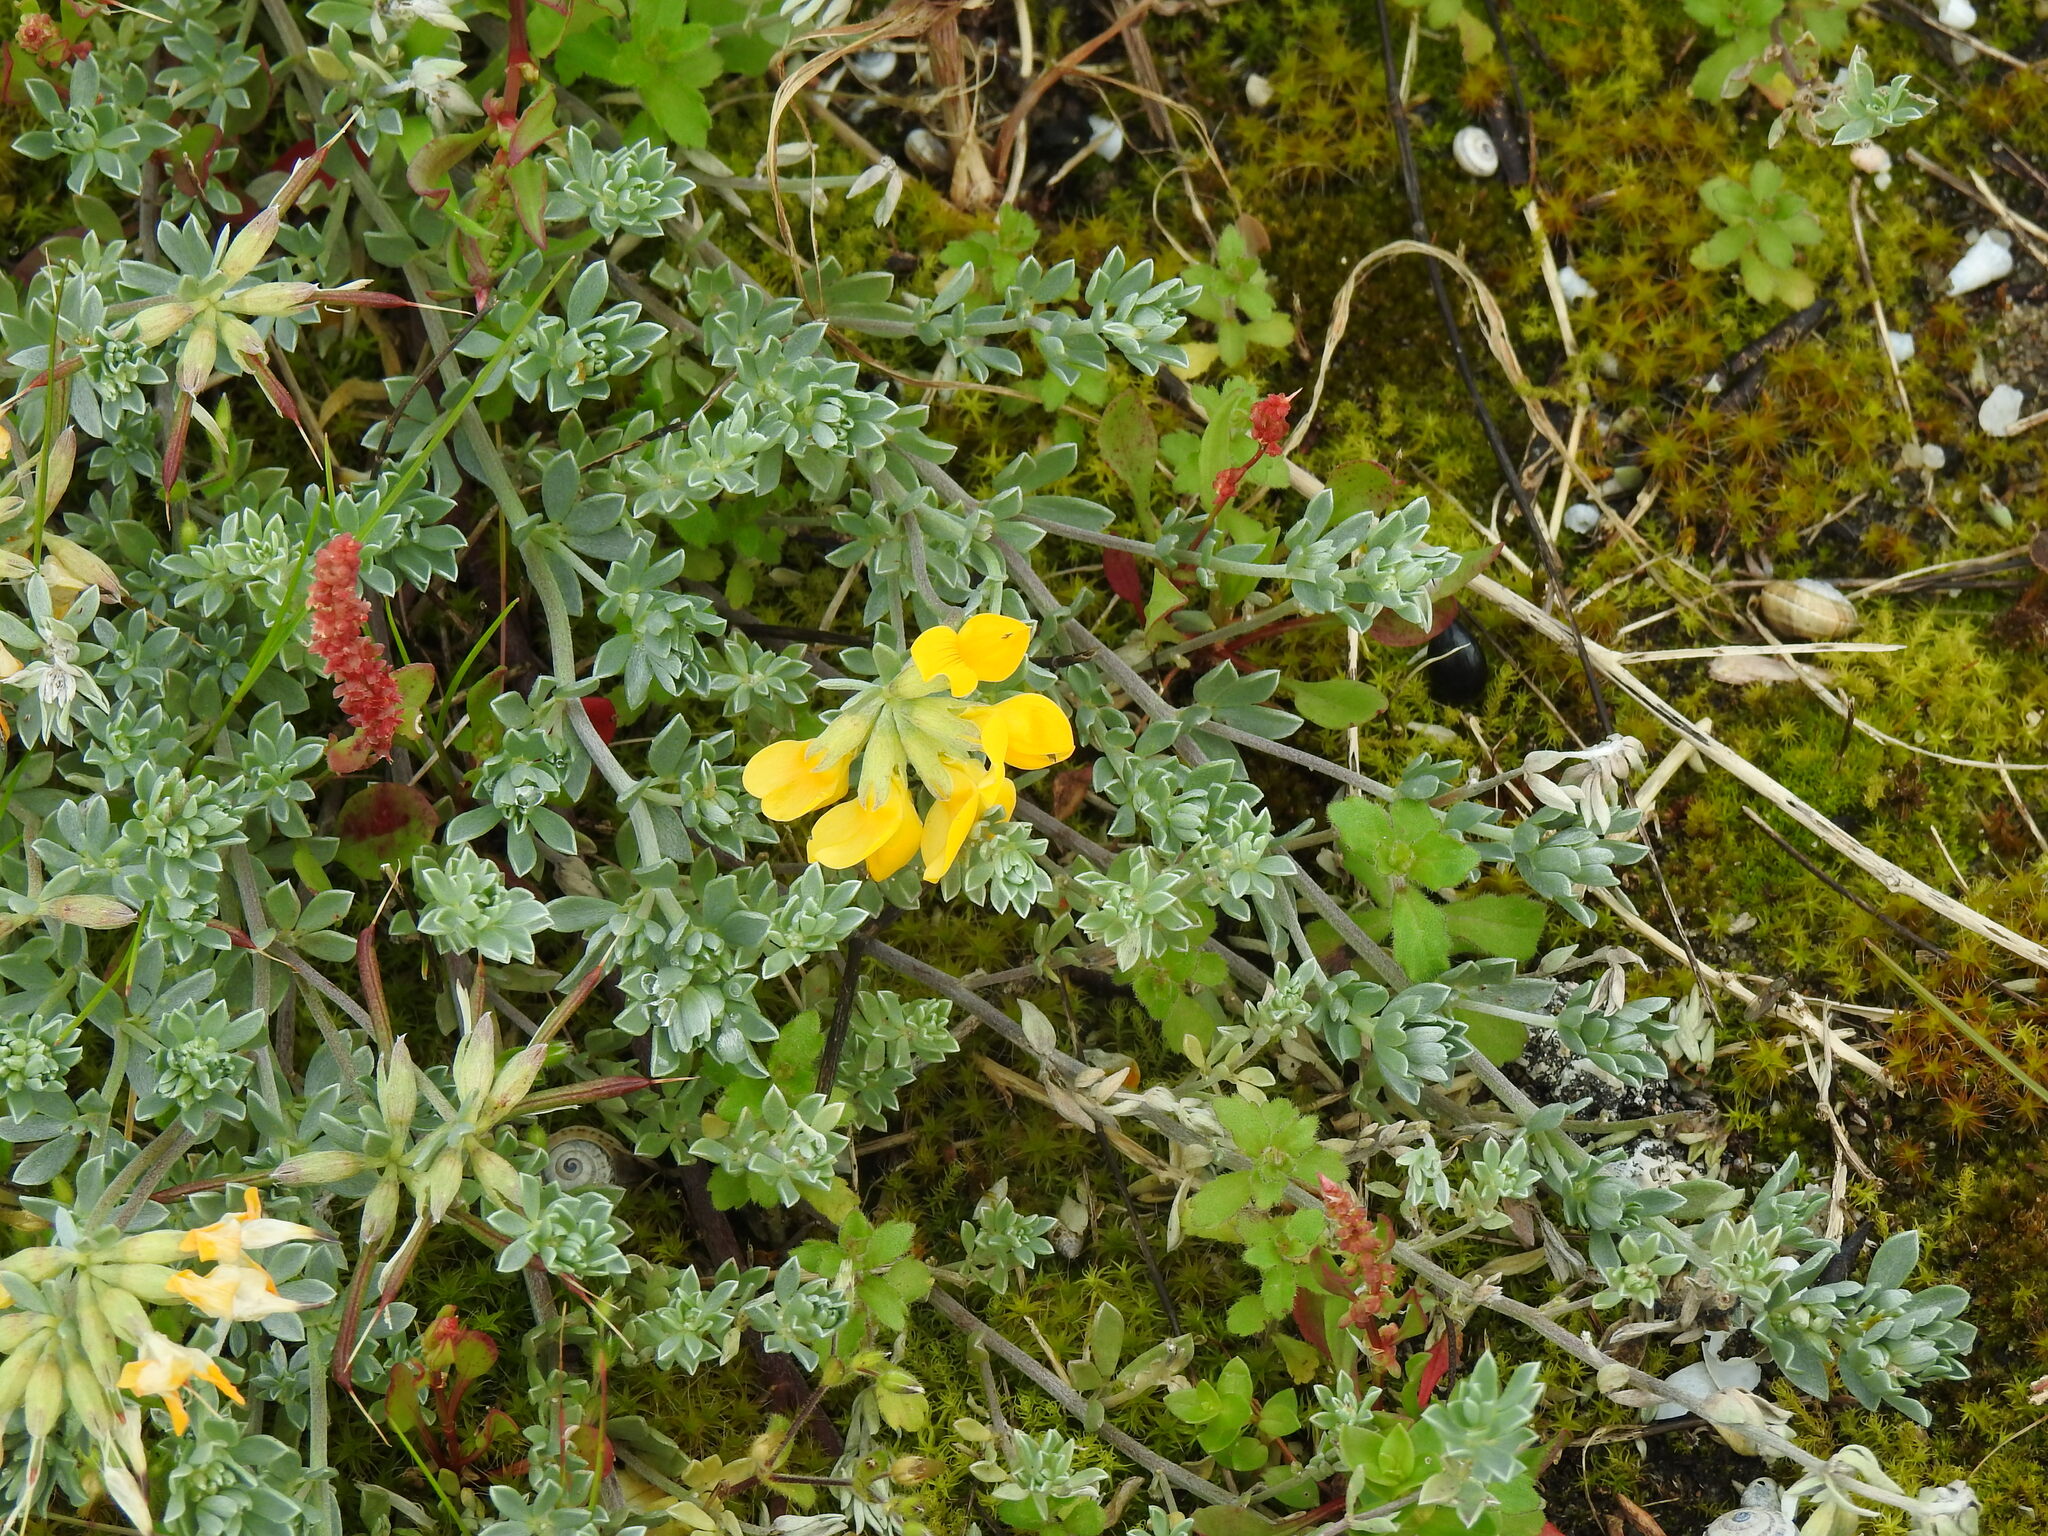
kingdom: Plantae
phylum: Tracheophyta
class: Magnoliopsida
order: Fabales
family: Fabaceae
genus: Lotus
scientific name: Lotus creticus
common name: Cretan bird's-foot trefoil
